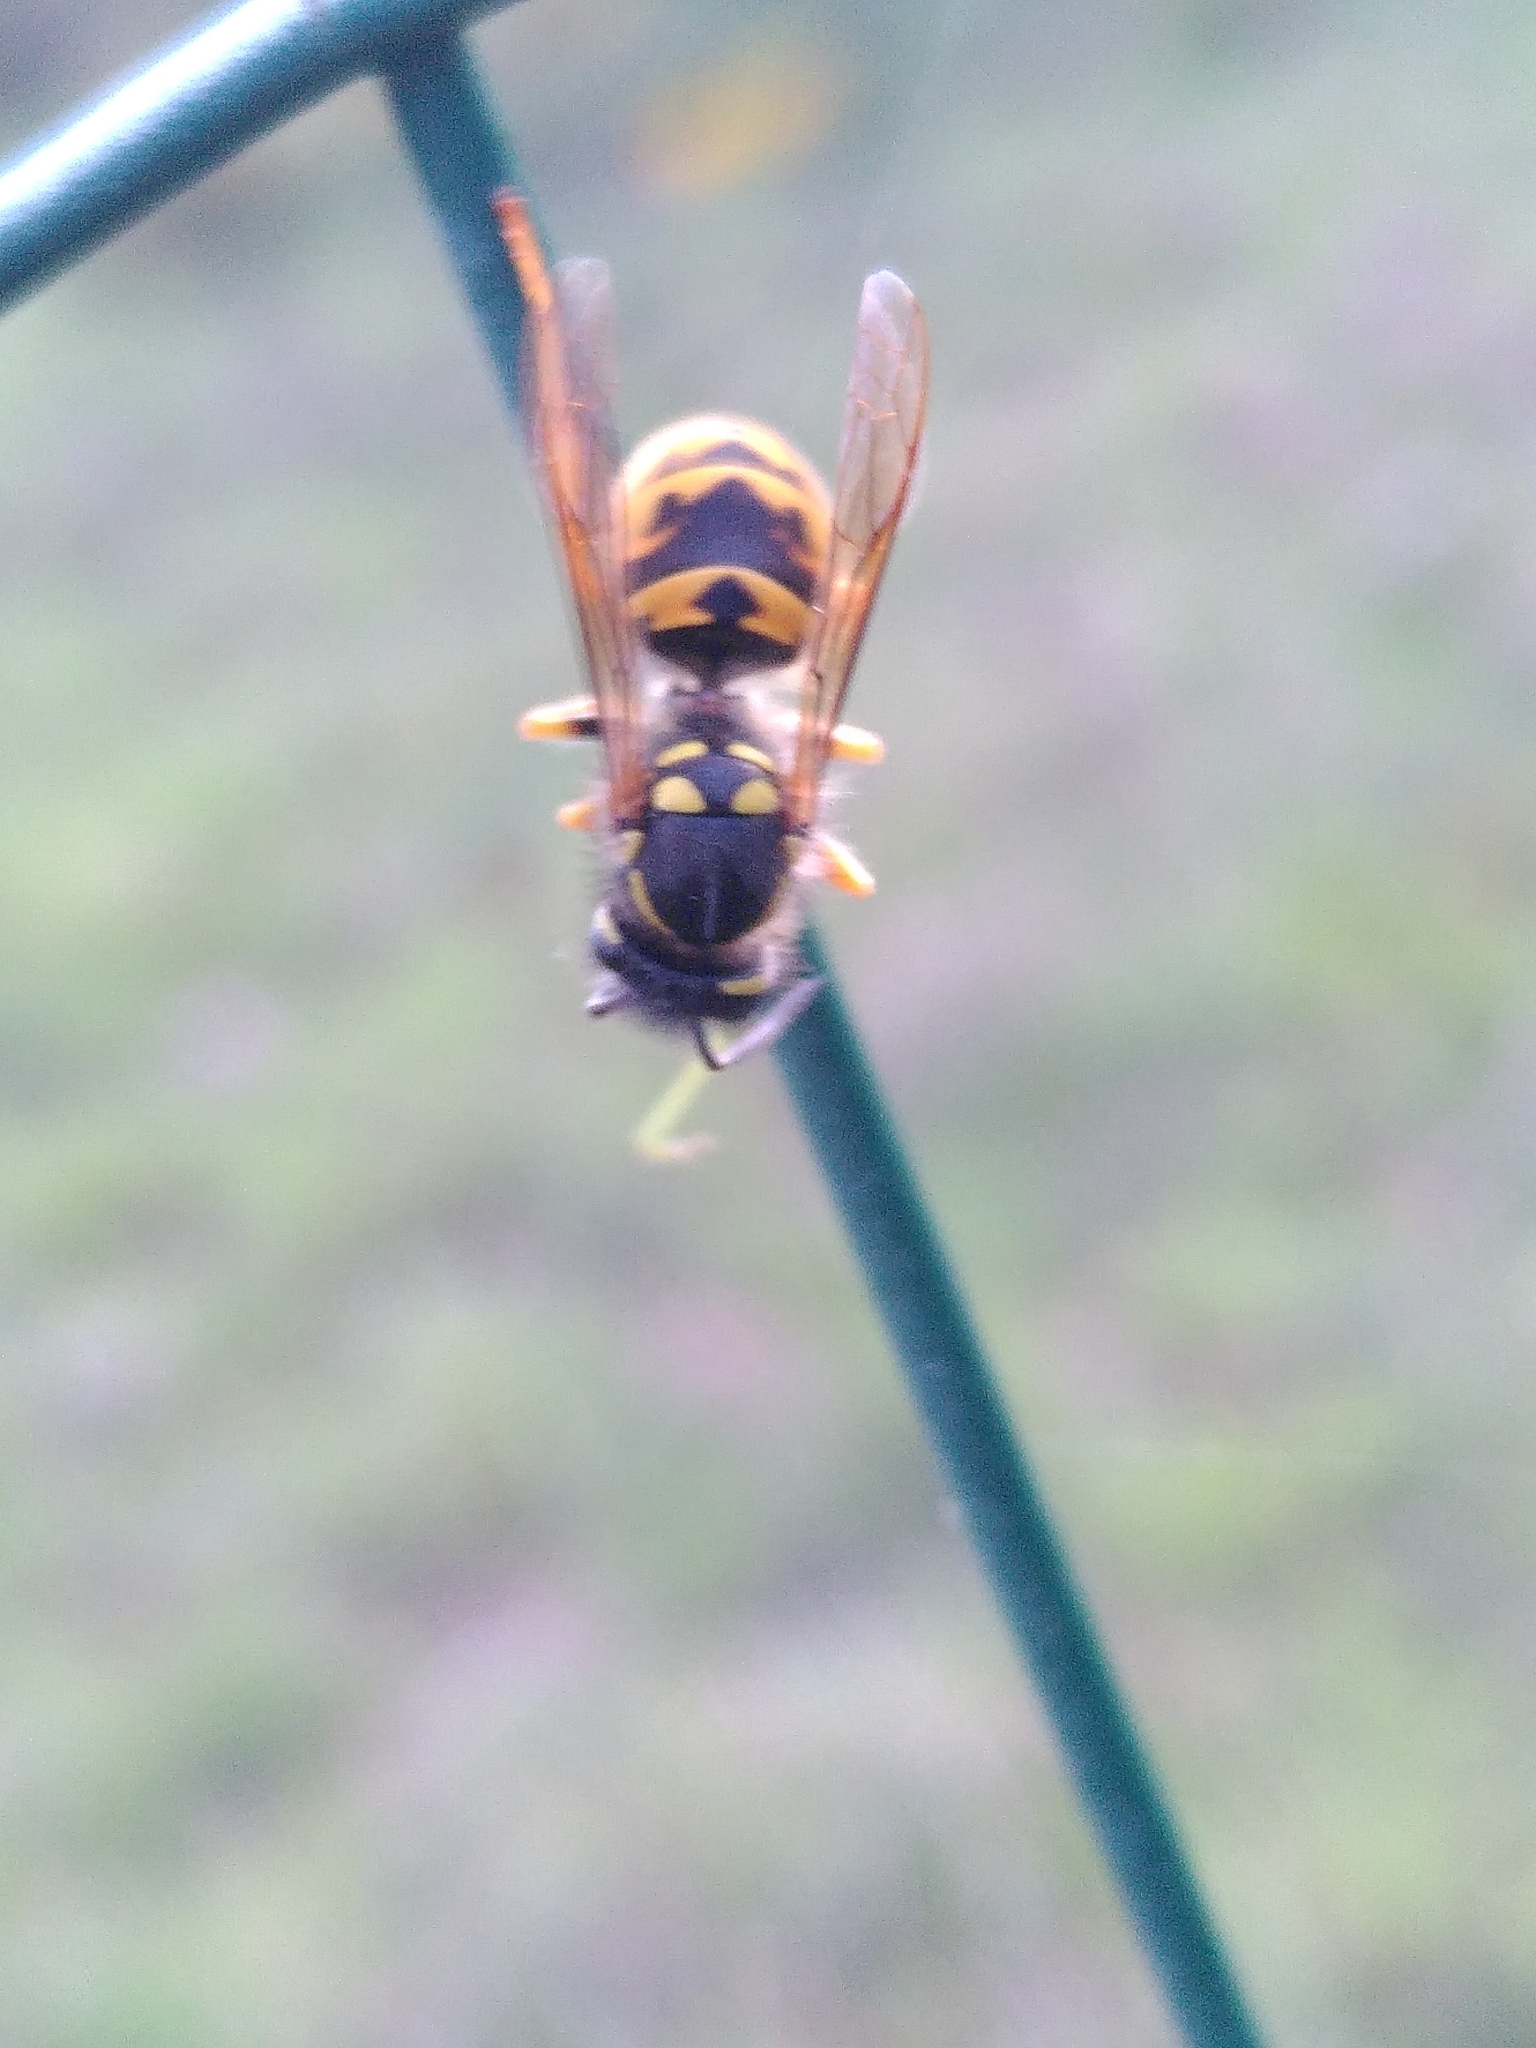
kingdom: Animalia
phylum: Arthropoda
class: Insecta
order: Hymenoptera
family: Vespidae
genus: Vespula
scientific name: Vespula germanica
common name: German wasp
